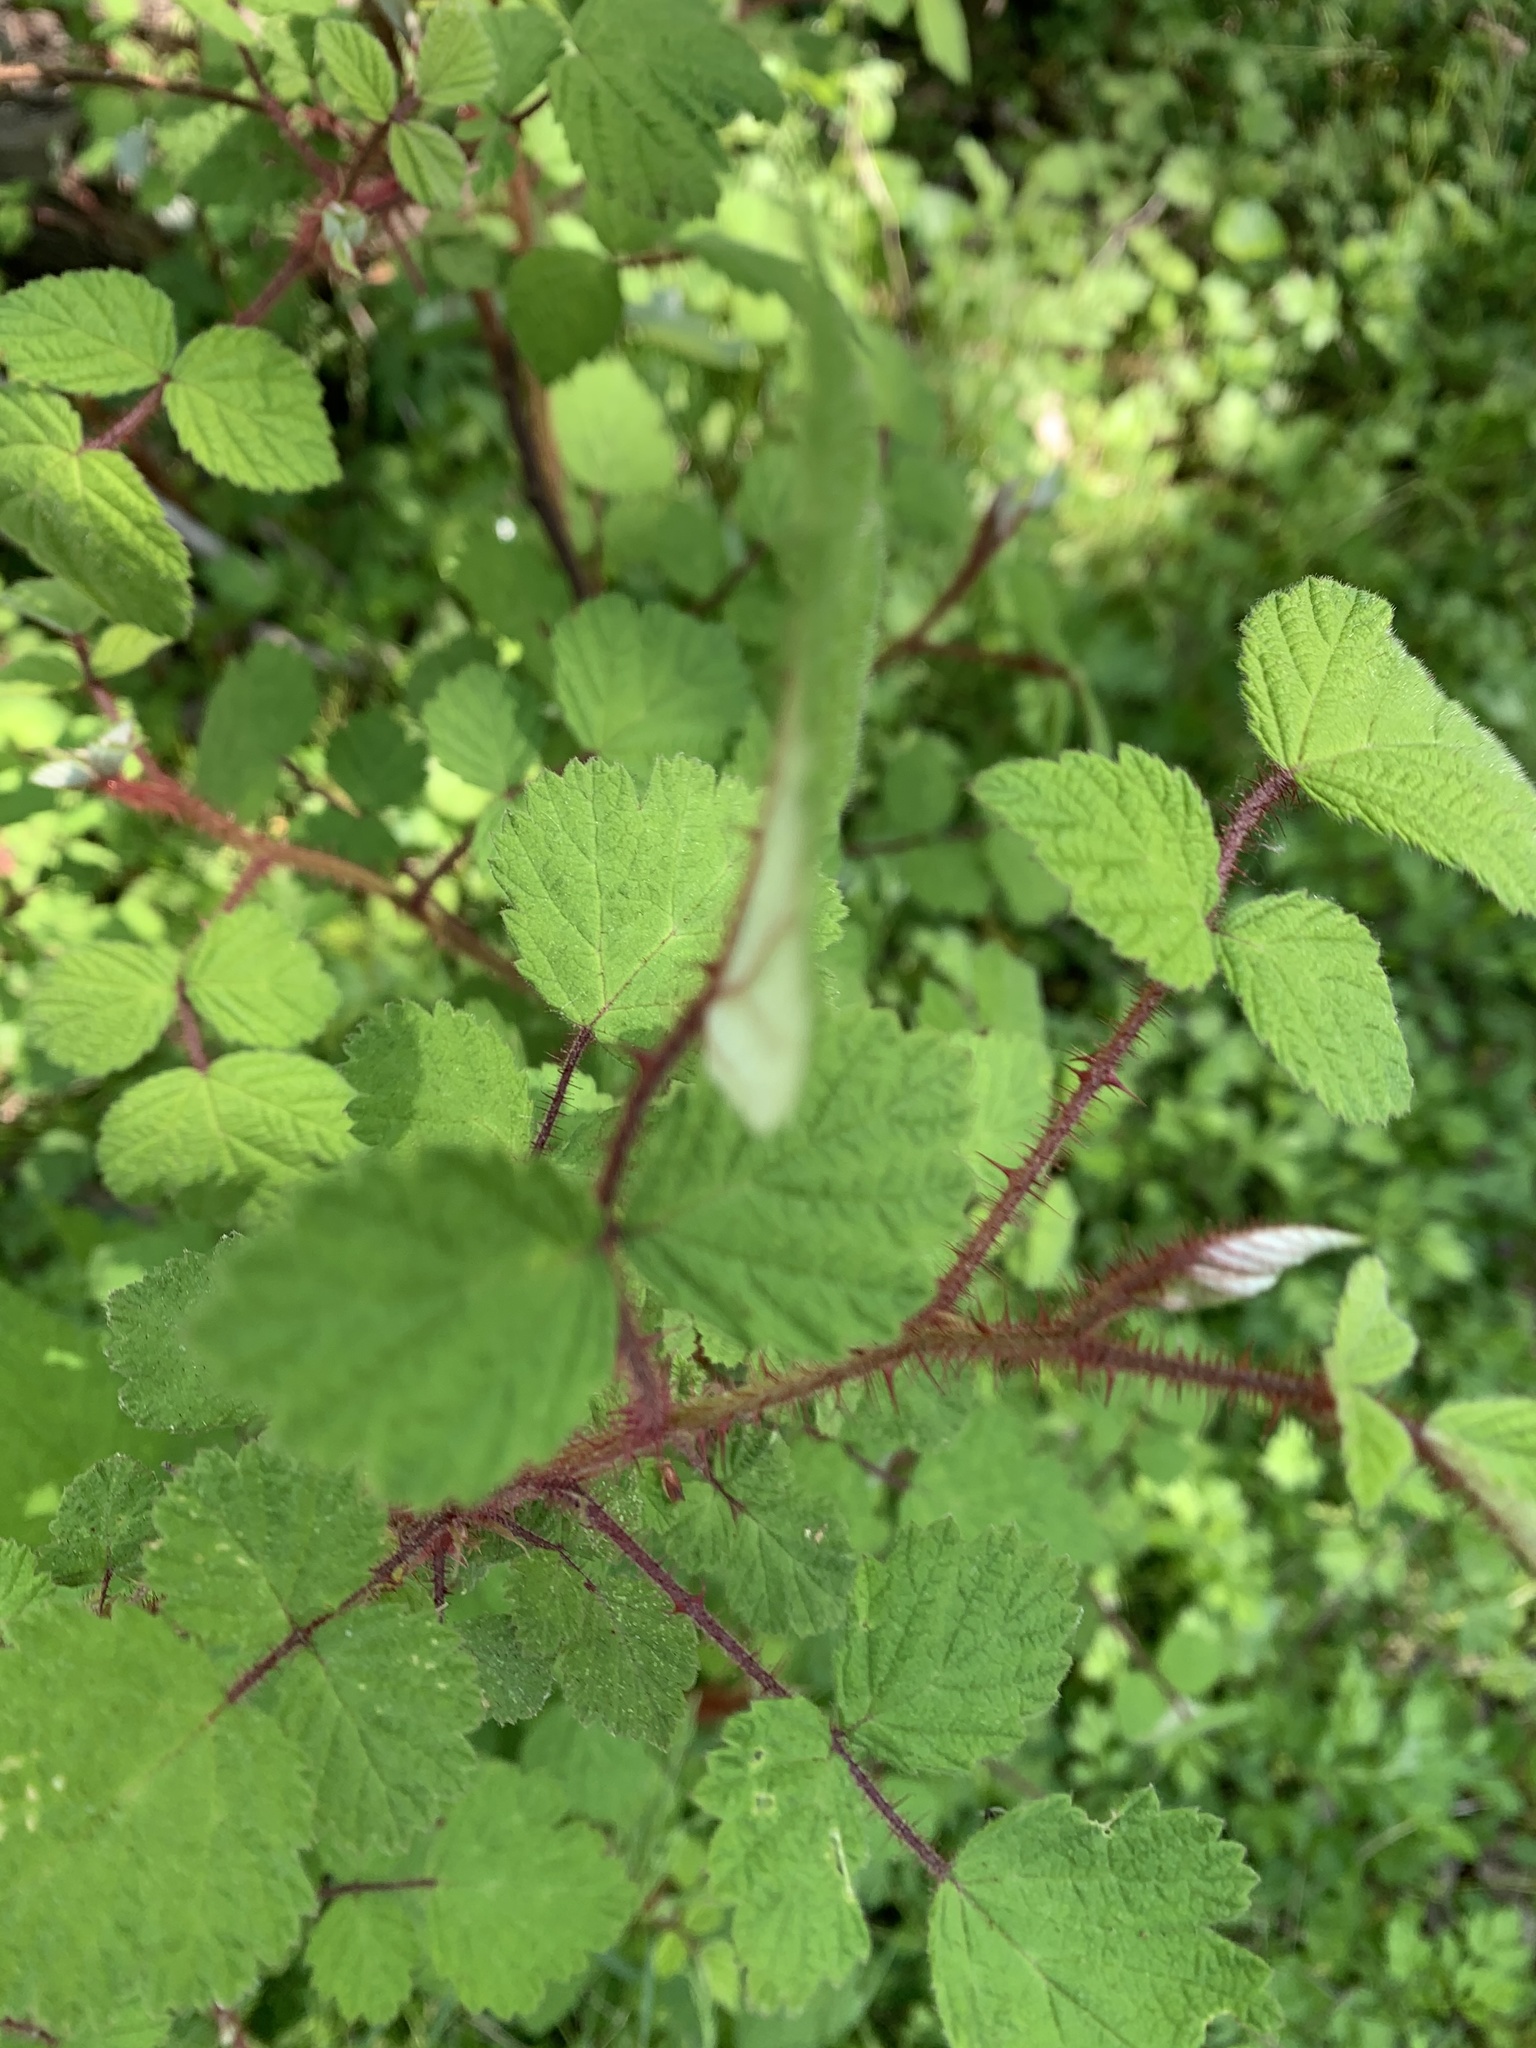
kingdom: Plantae
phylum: Tracheophyta
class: Magnoliopsida
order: Rosales
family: Rosaceae
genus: Rubus
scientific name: Rubus phoenicolasius
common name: Japanese wineberry
